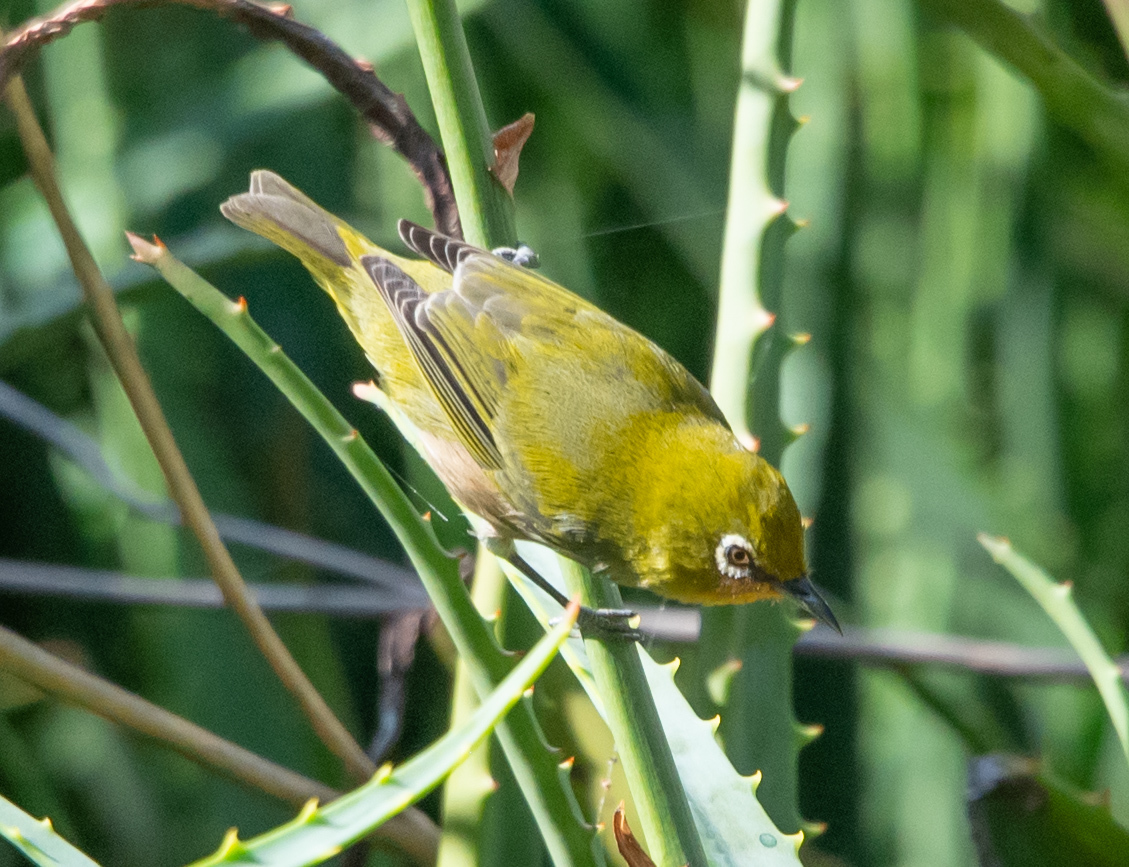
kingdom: Animalia
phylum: Chordata
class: Aves
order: Passeriformes
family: Zosteropidae
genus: Zosterops
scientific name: Zosterops japonicus
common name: Japanese white-eye
